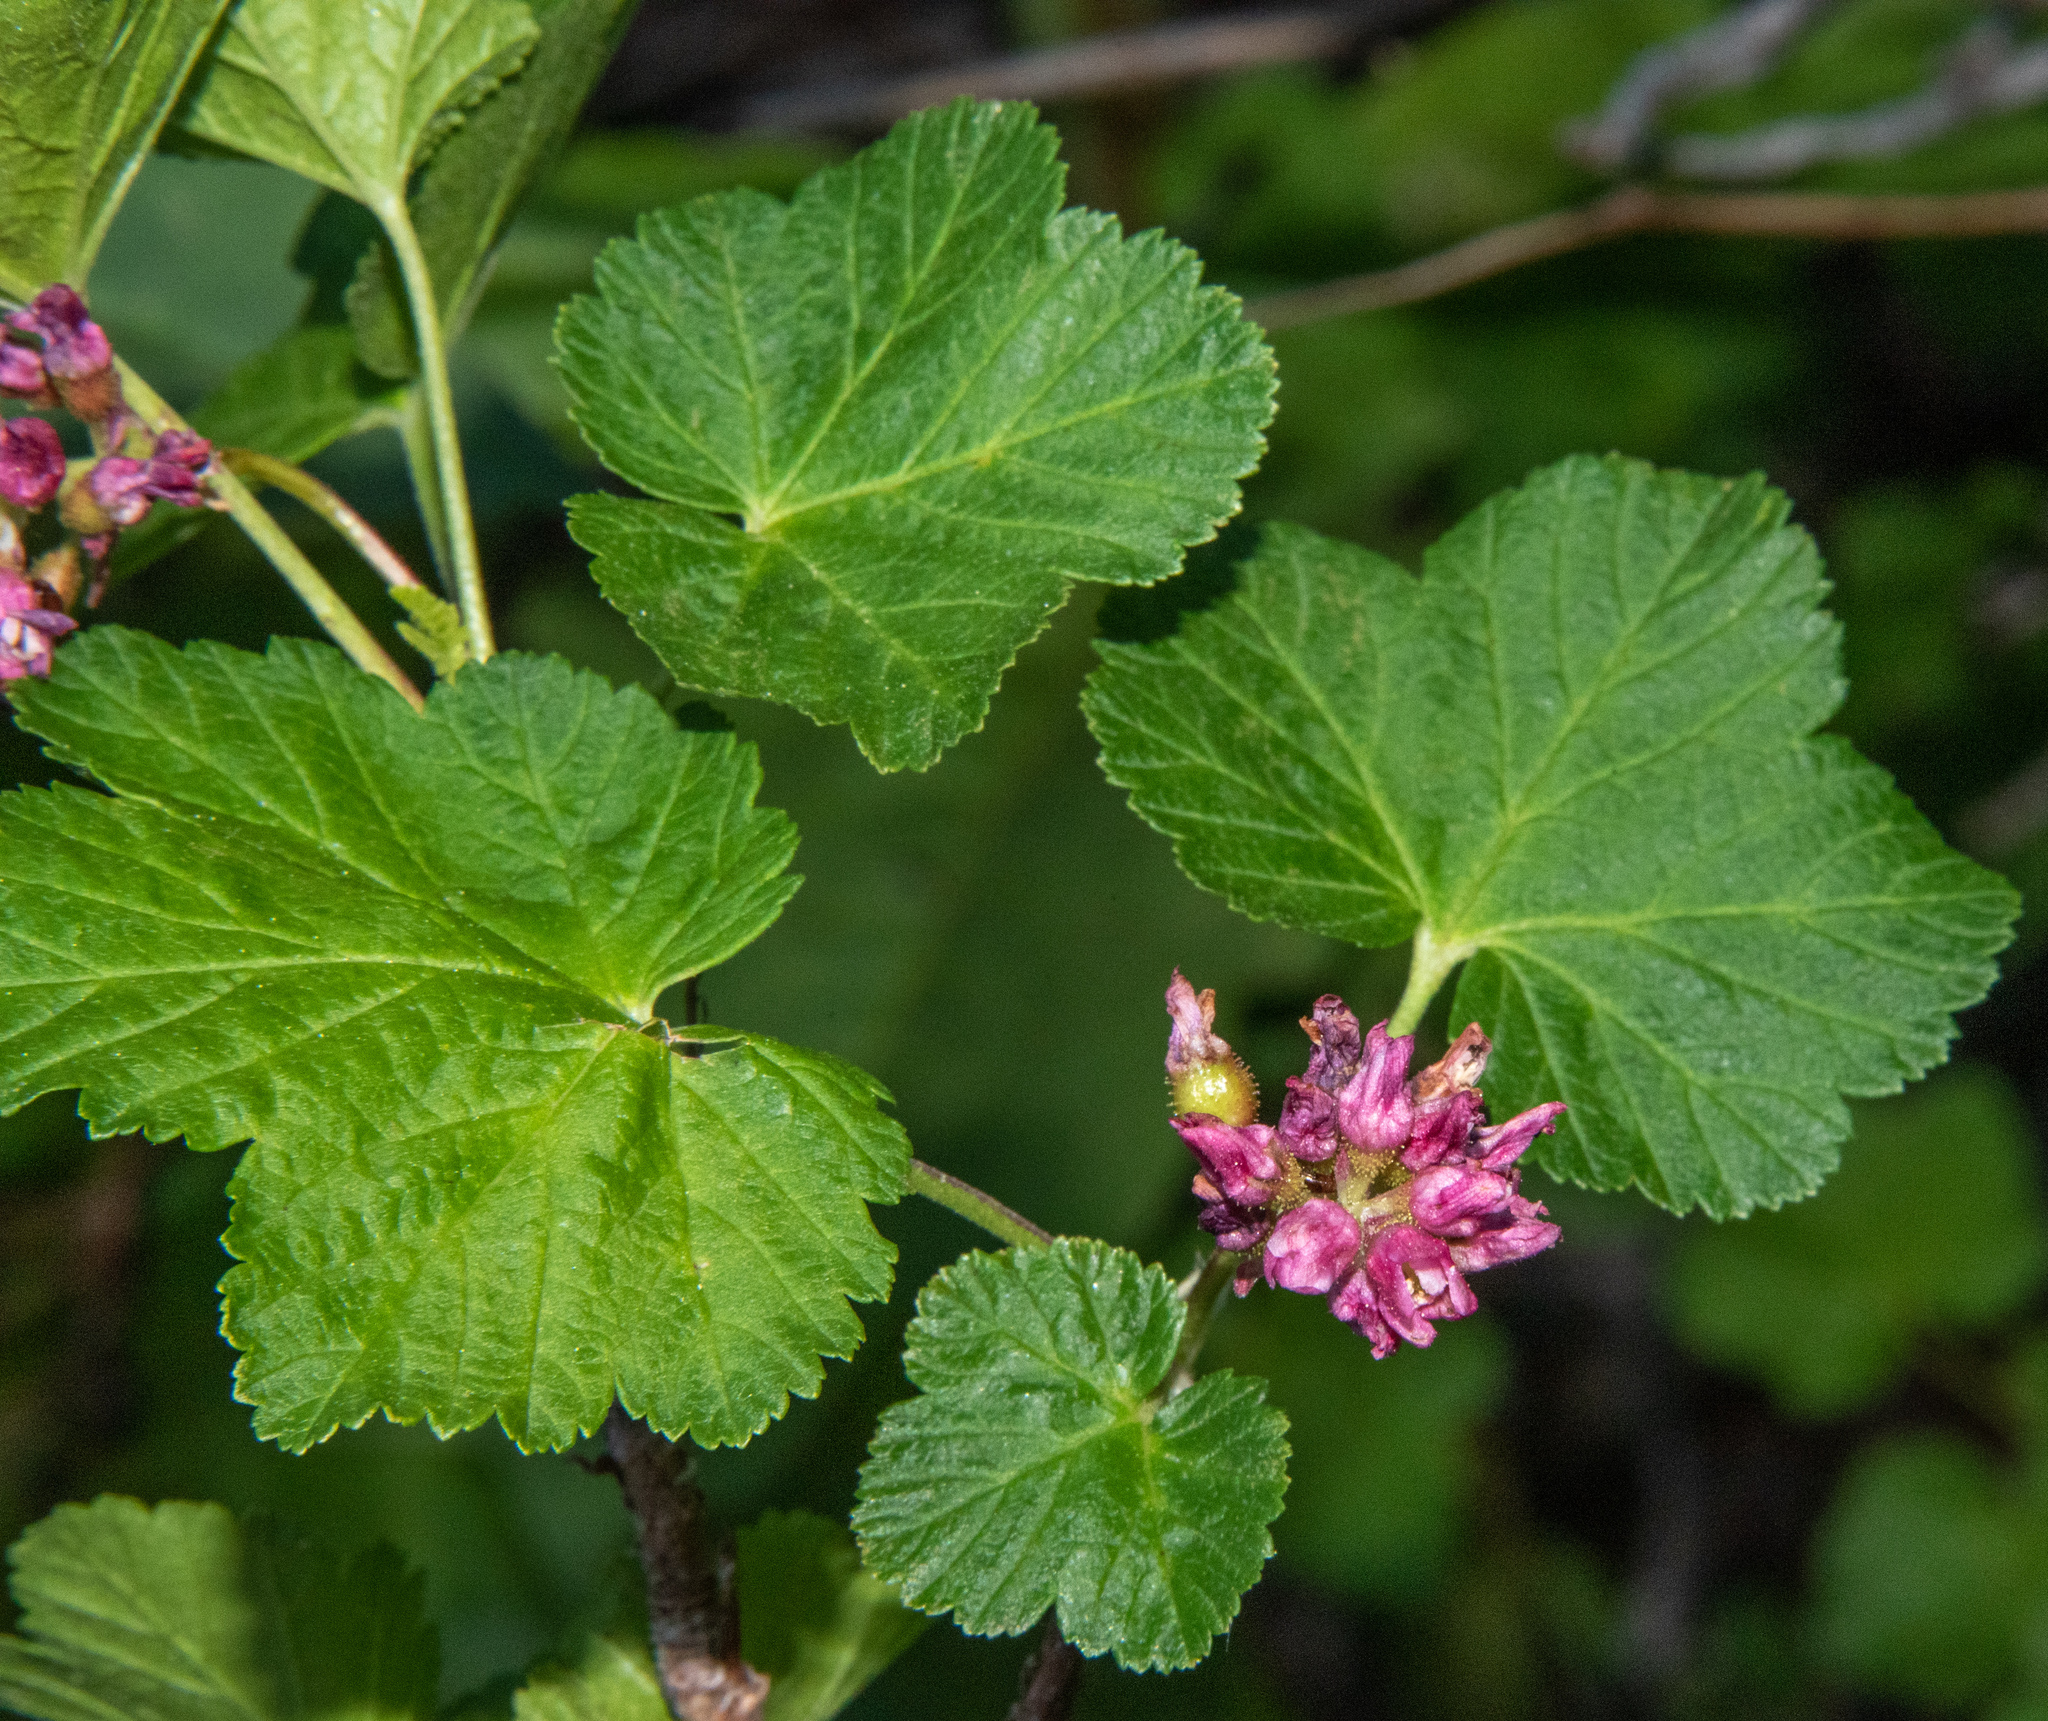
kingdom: Plantae
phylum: Tracheophyta
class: Magnoliopsida
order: Saxifragales
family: Grossulariaceae
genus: Ribes
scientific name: Ribes nevadense
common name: Mountain pink currant
